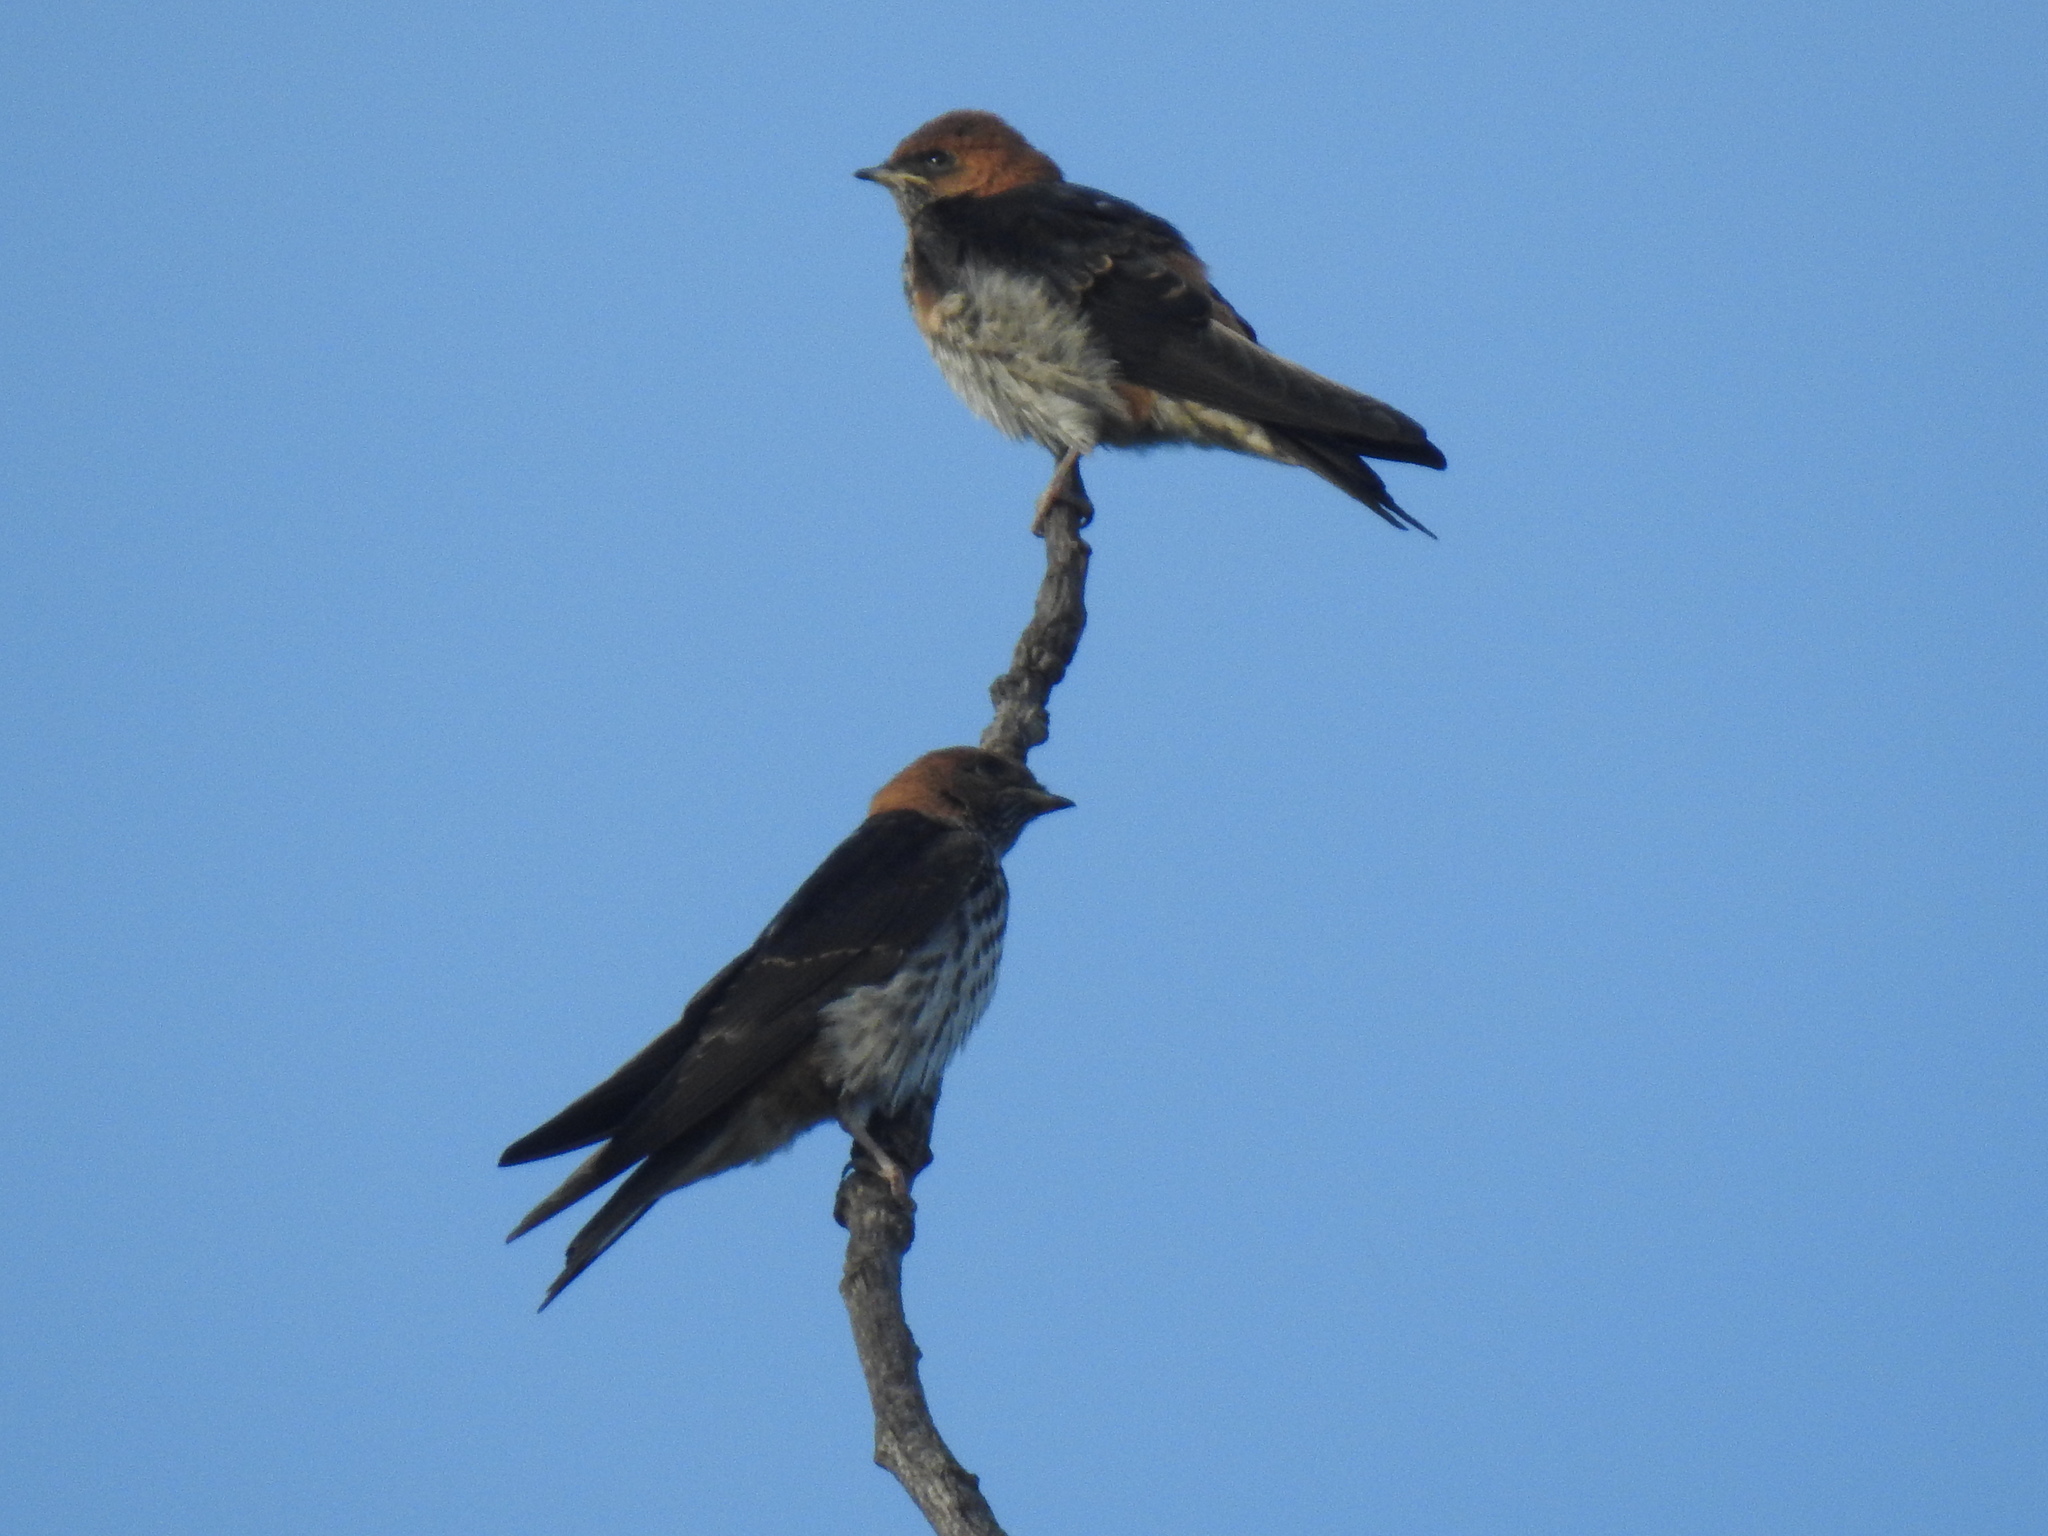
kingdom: Animalia
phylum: Chordata
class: Aves
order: Passeriformes
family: Hirundinidae
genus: Cecropis
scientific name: Cecropis abyssinica
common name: Lesser striped-swallow
